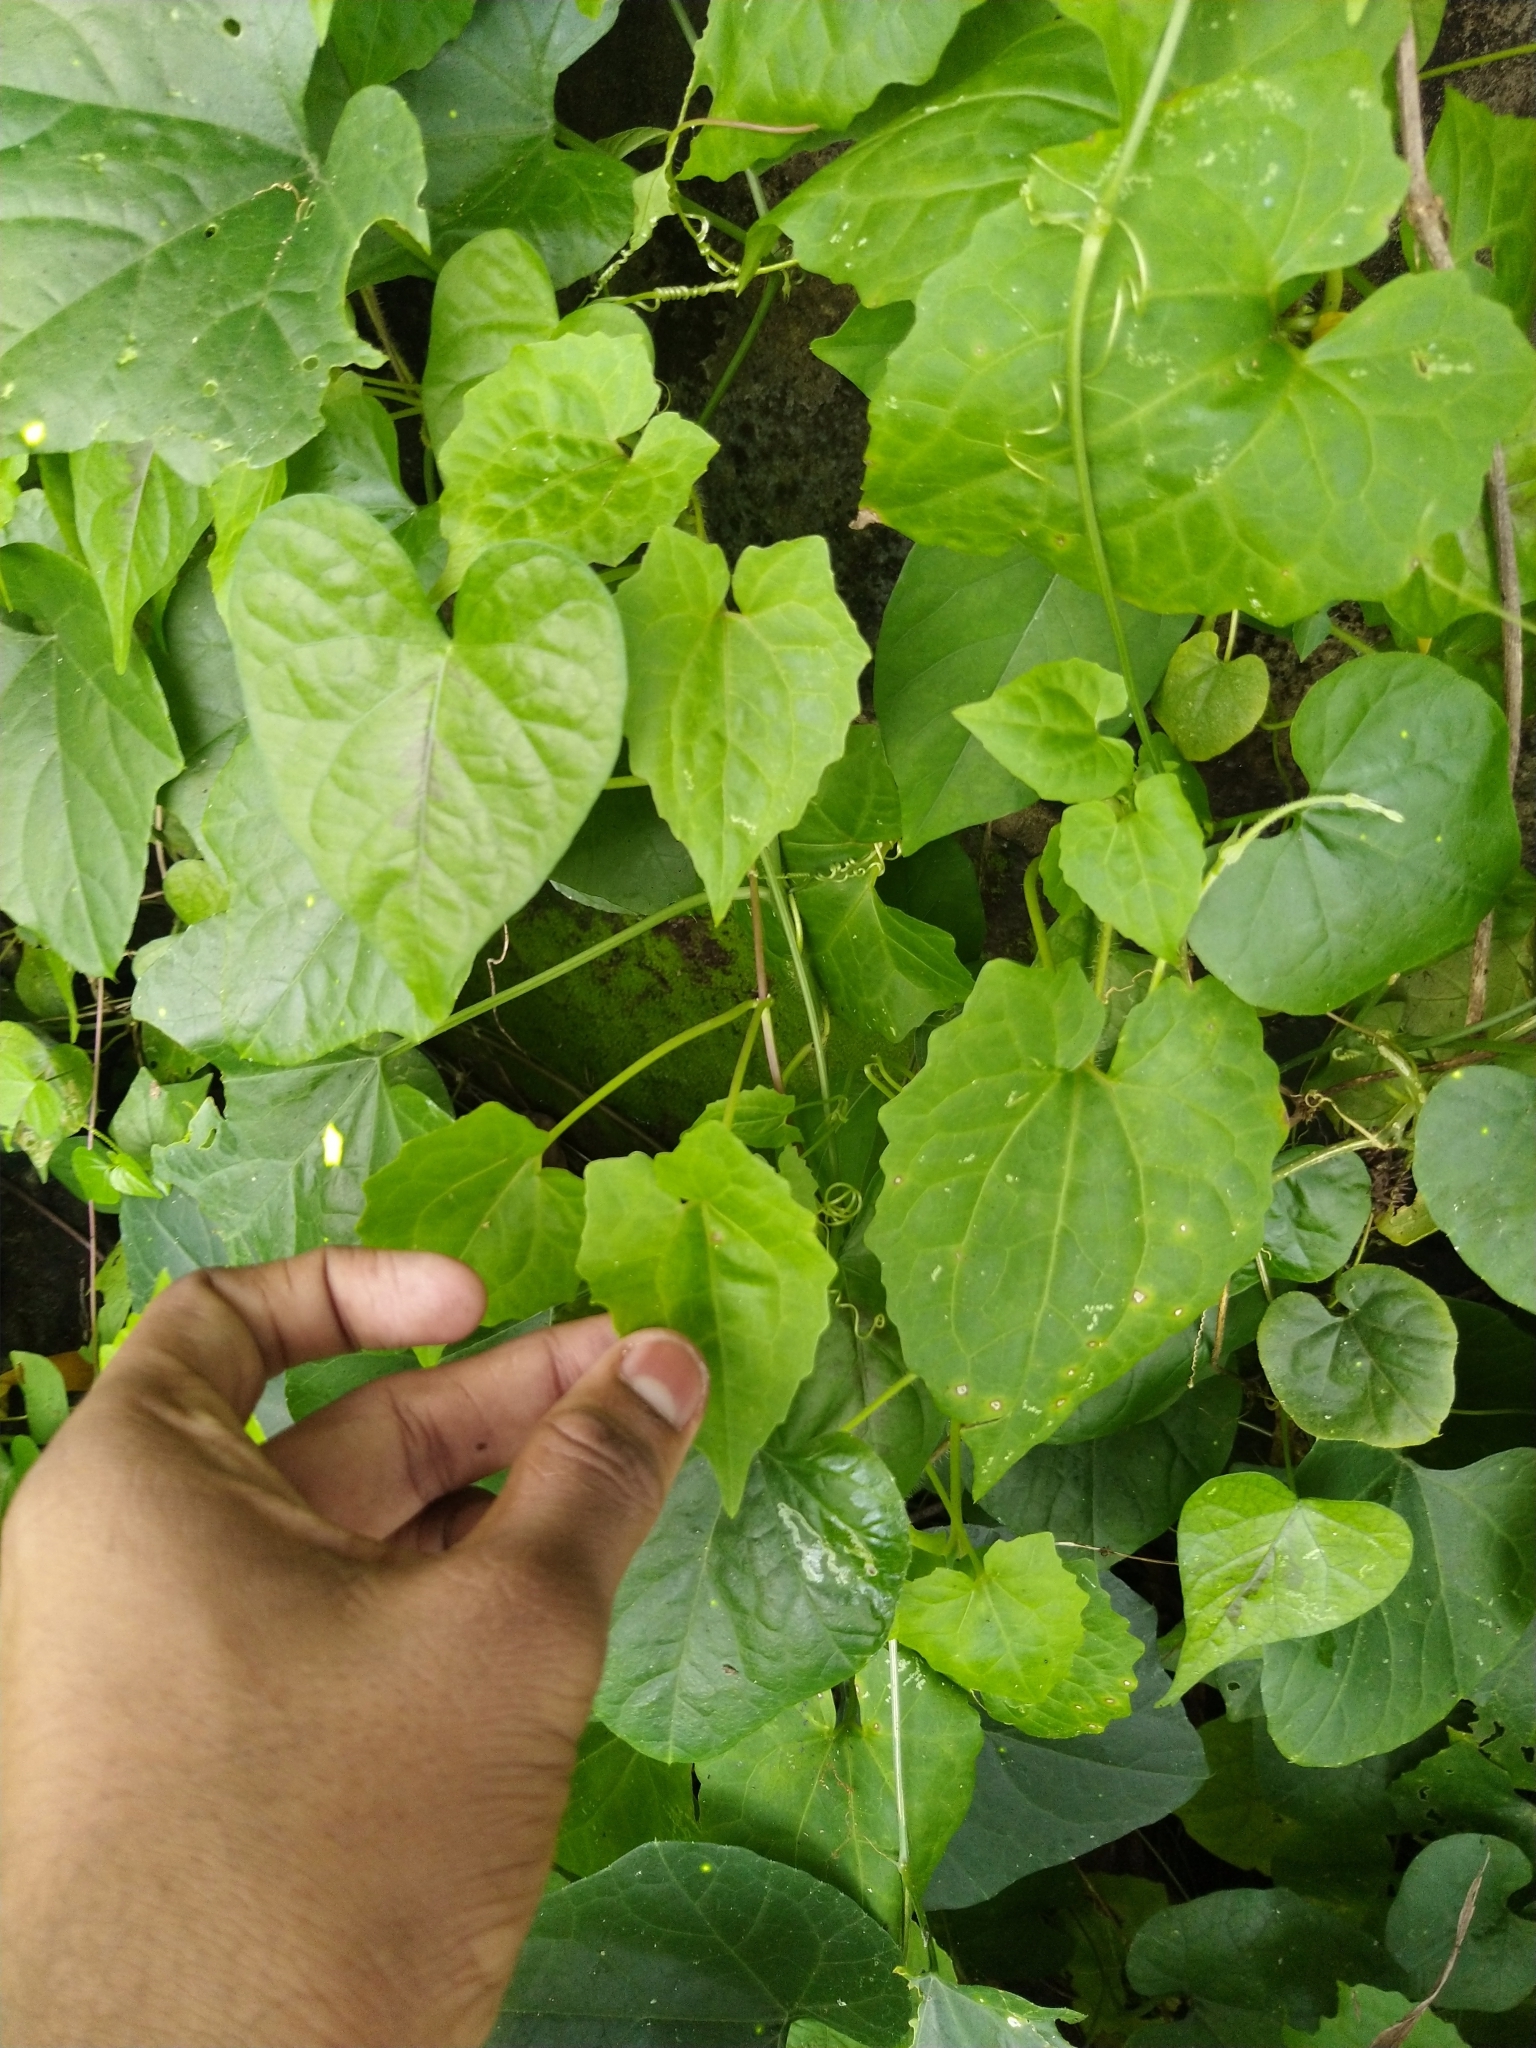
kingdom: Plantae
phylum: Tracheophyta
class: Magnoliopsida
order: Asterales
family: Asteraceae
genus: Mikania
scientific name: Mikania micrantha
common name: Mile-a-minute
